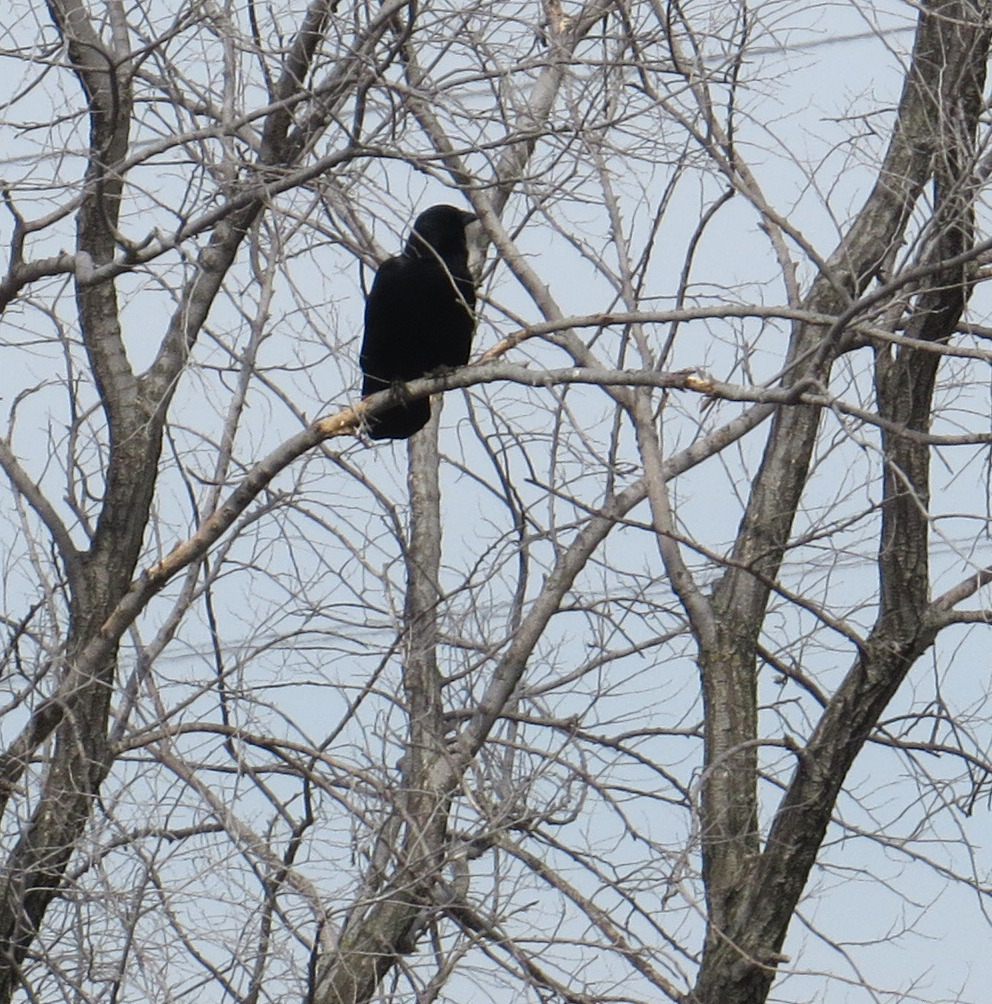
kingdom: Animalia
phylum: Chordata
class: Aves
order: Passeriformes
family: Corvidae
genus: Corvus
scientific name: Corvus brachyrhynchos
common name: American crow
